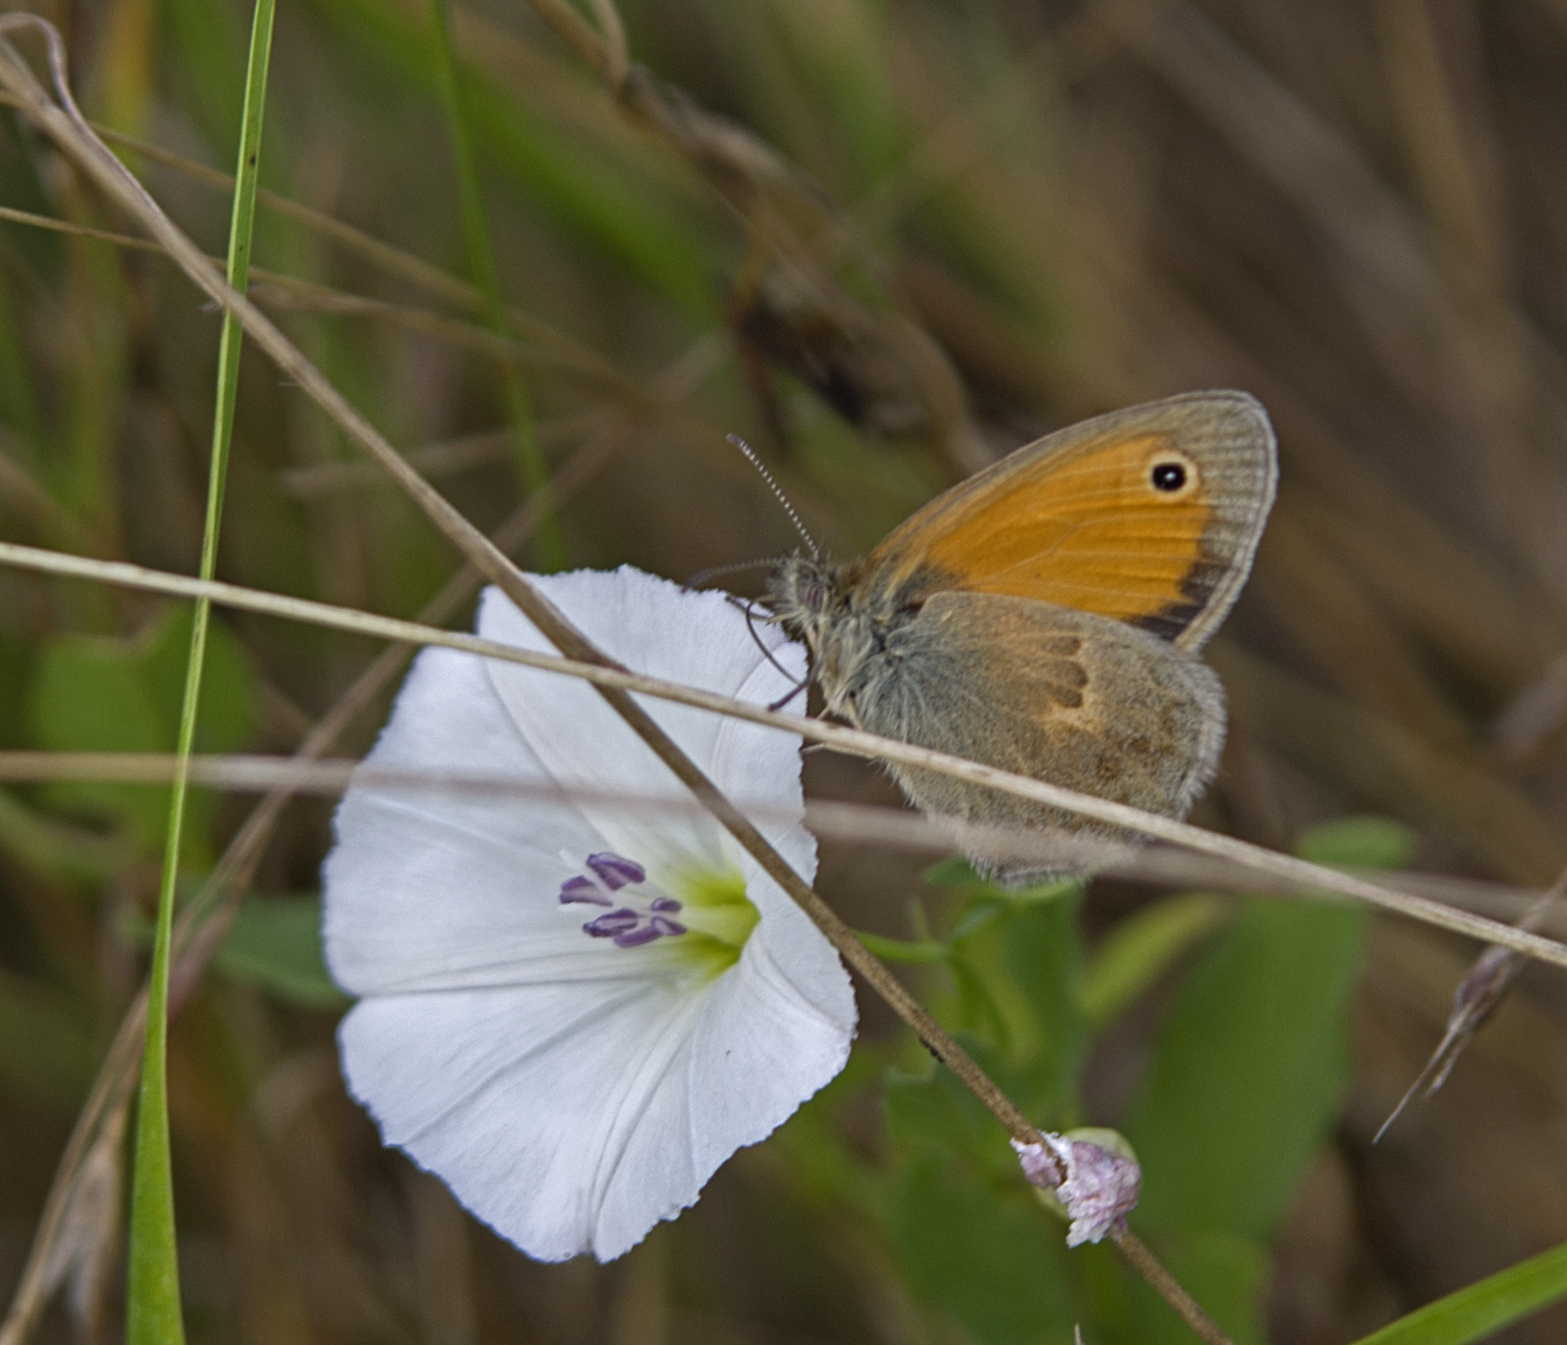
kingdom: Animalia
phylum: Arthropoda
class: Insecta
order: Lepidoptera
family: Nymphalidae
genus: Coenonympha
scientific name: Coenonympha pamphilus
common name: Small heath
